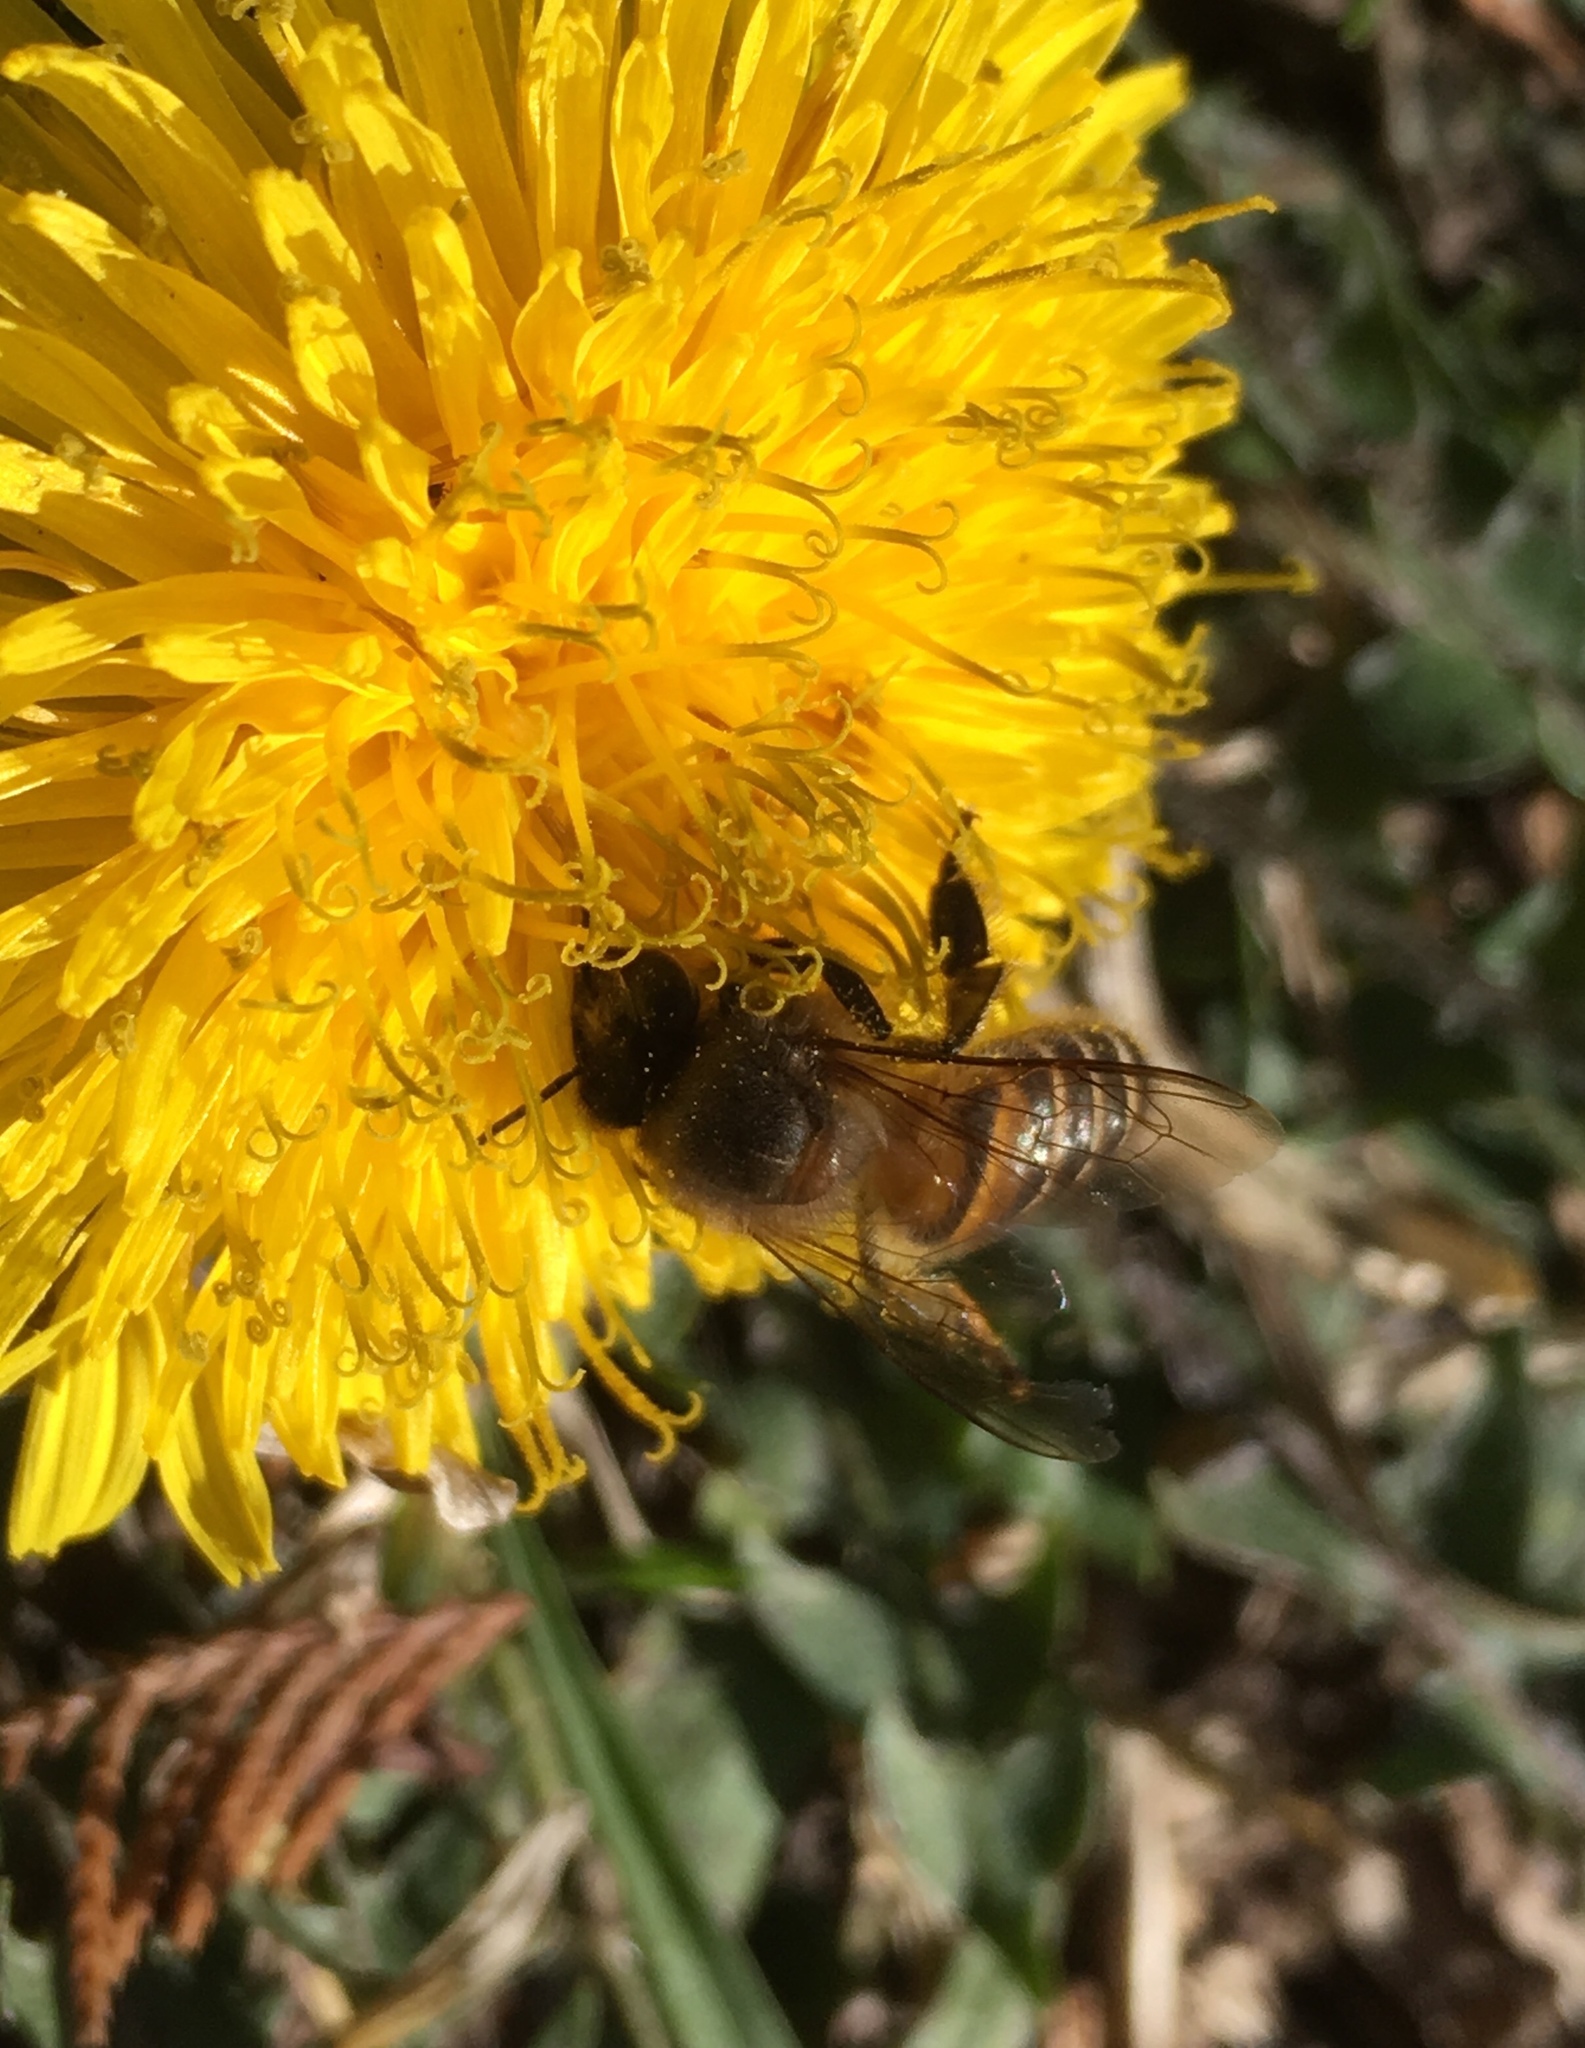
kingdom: Animalia
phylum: Arthropoda
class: Insecta
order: Hymenoptera
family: Apidae
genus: Apis
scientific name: Apis cerana
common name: Honey bee
